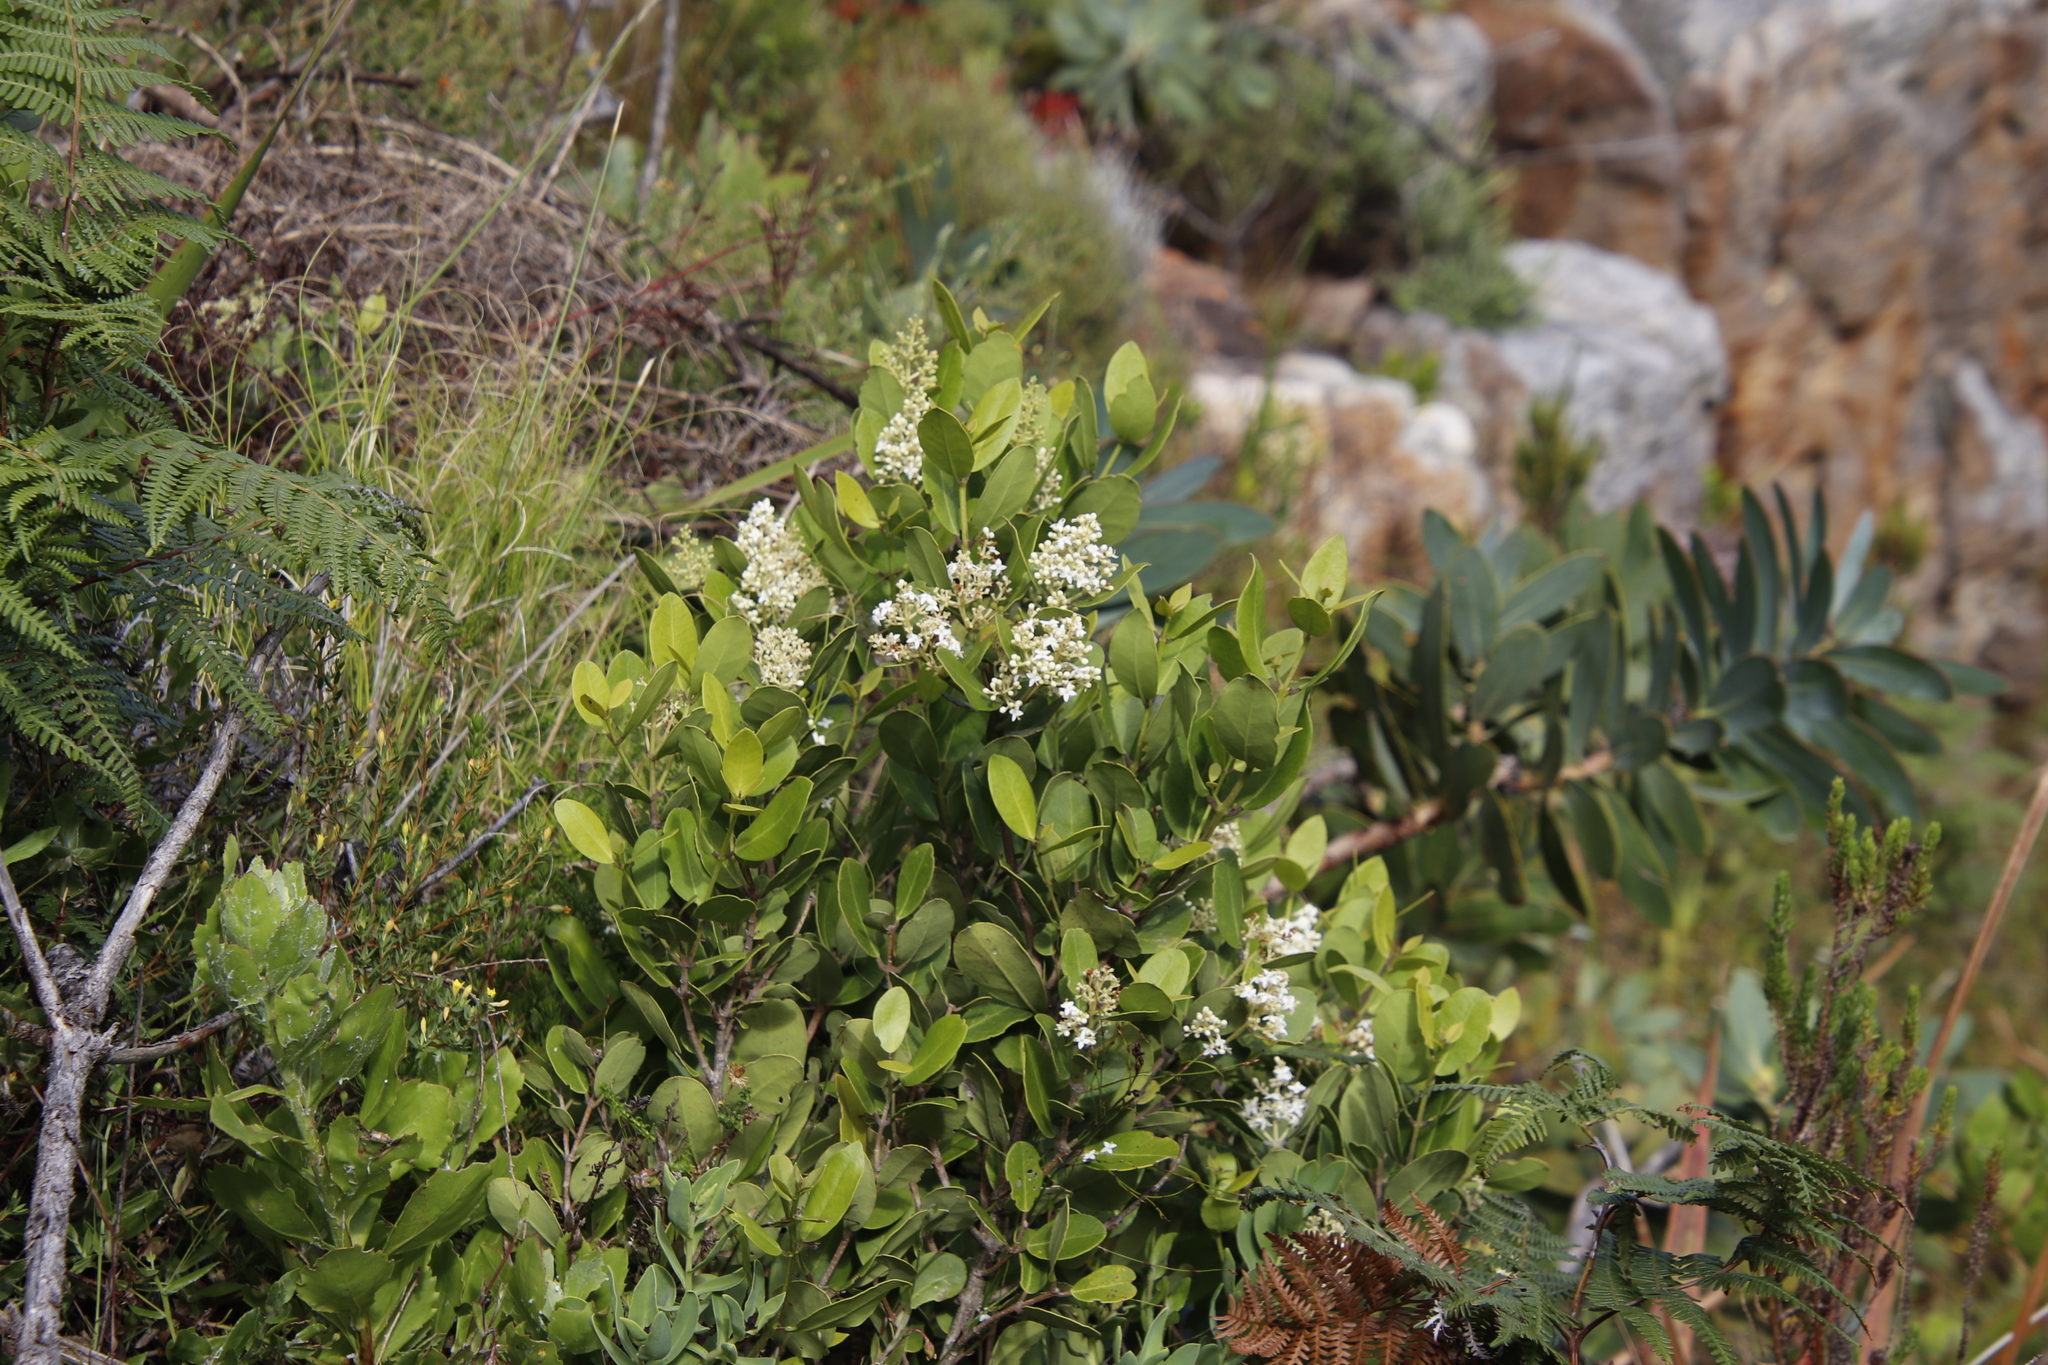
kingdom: Plantae
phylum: Tracheophyta
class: Magnoliopsida
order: Lamiales
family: Oleaceae
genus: Olea
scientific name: Olea capensis
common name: Black ironwood
